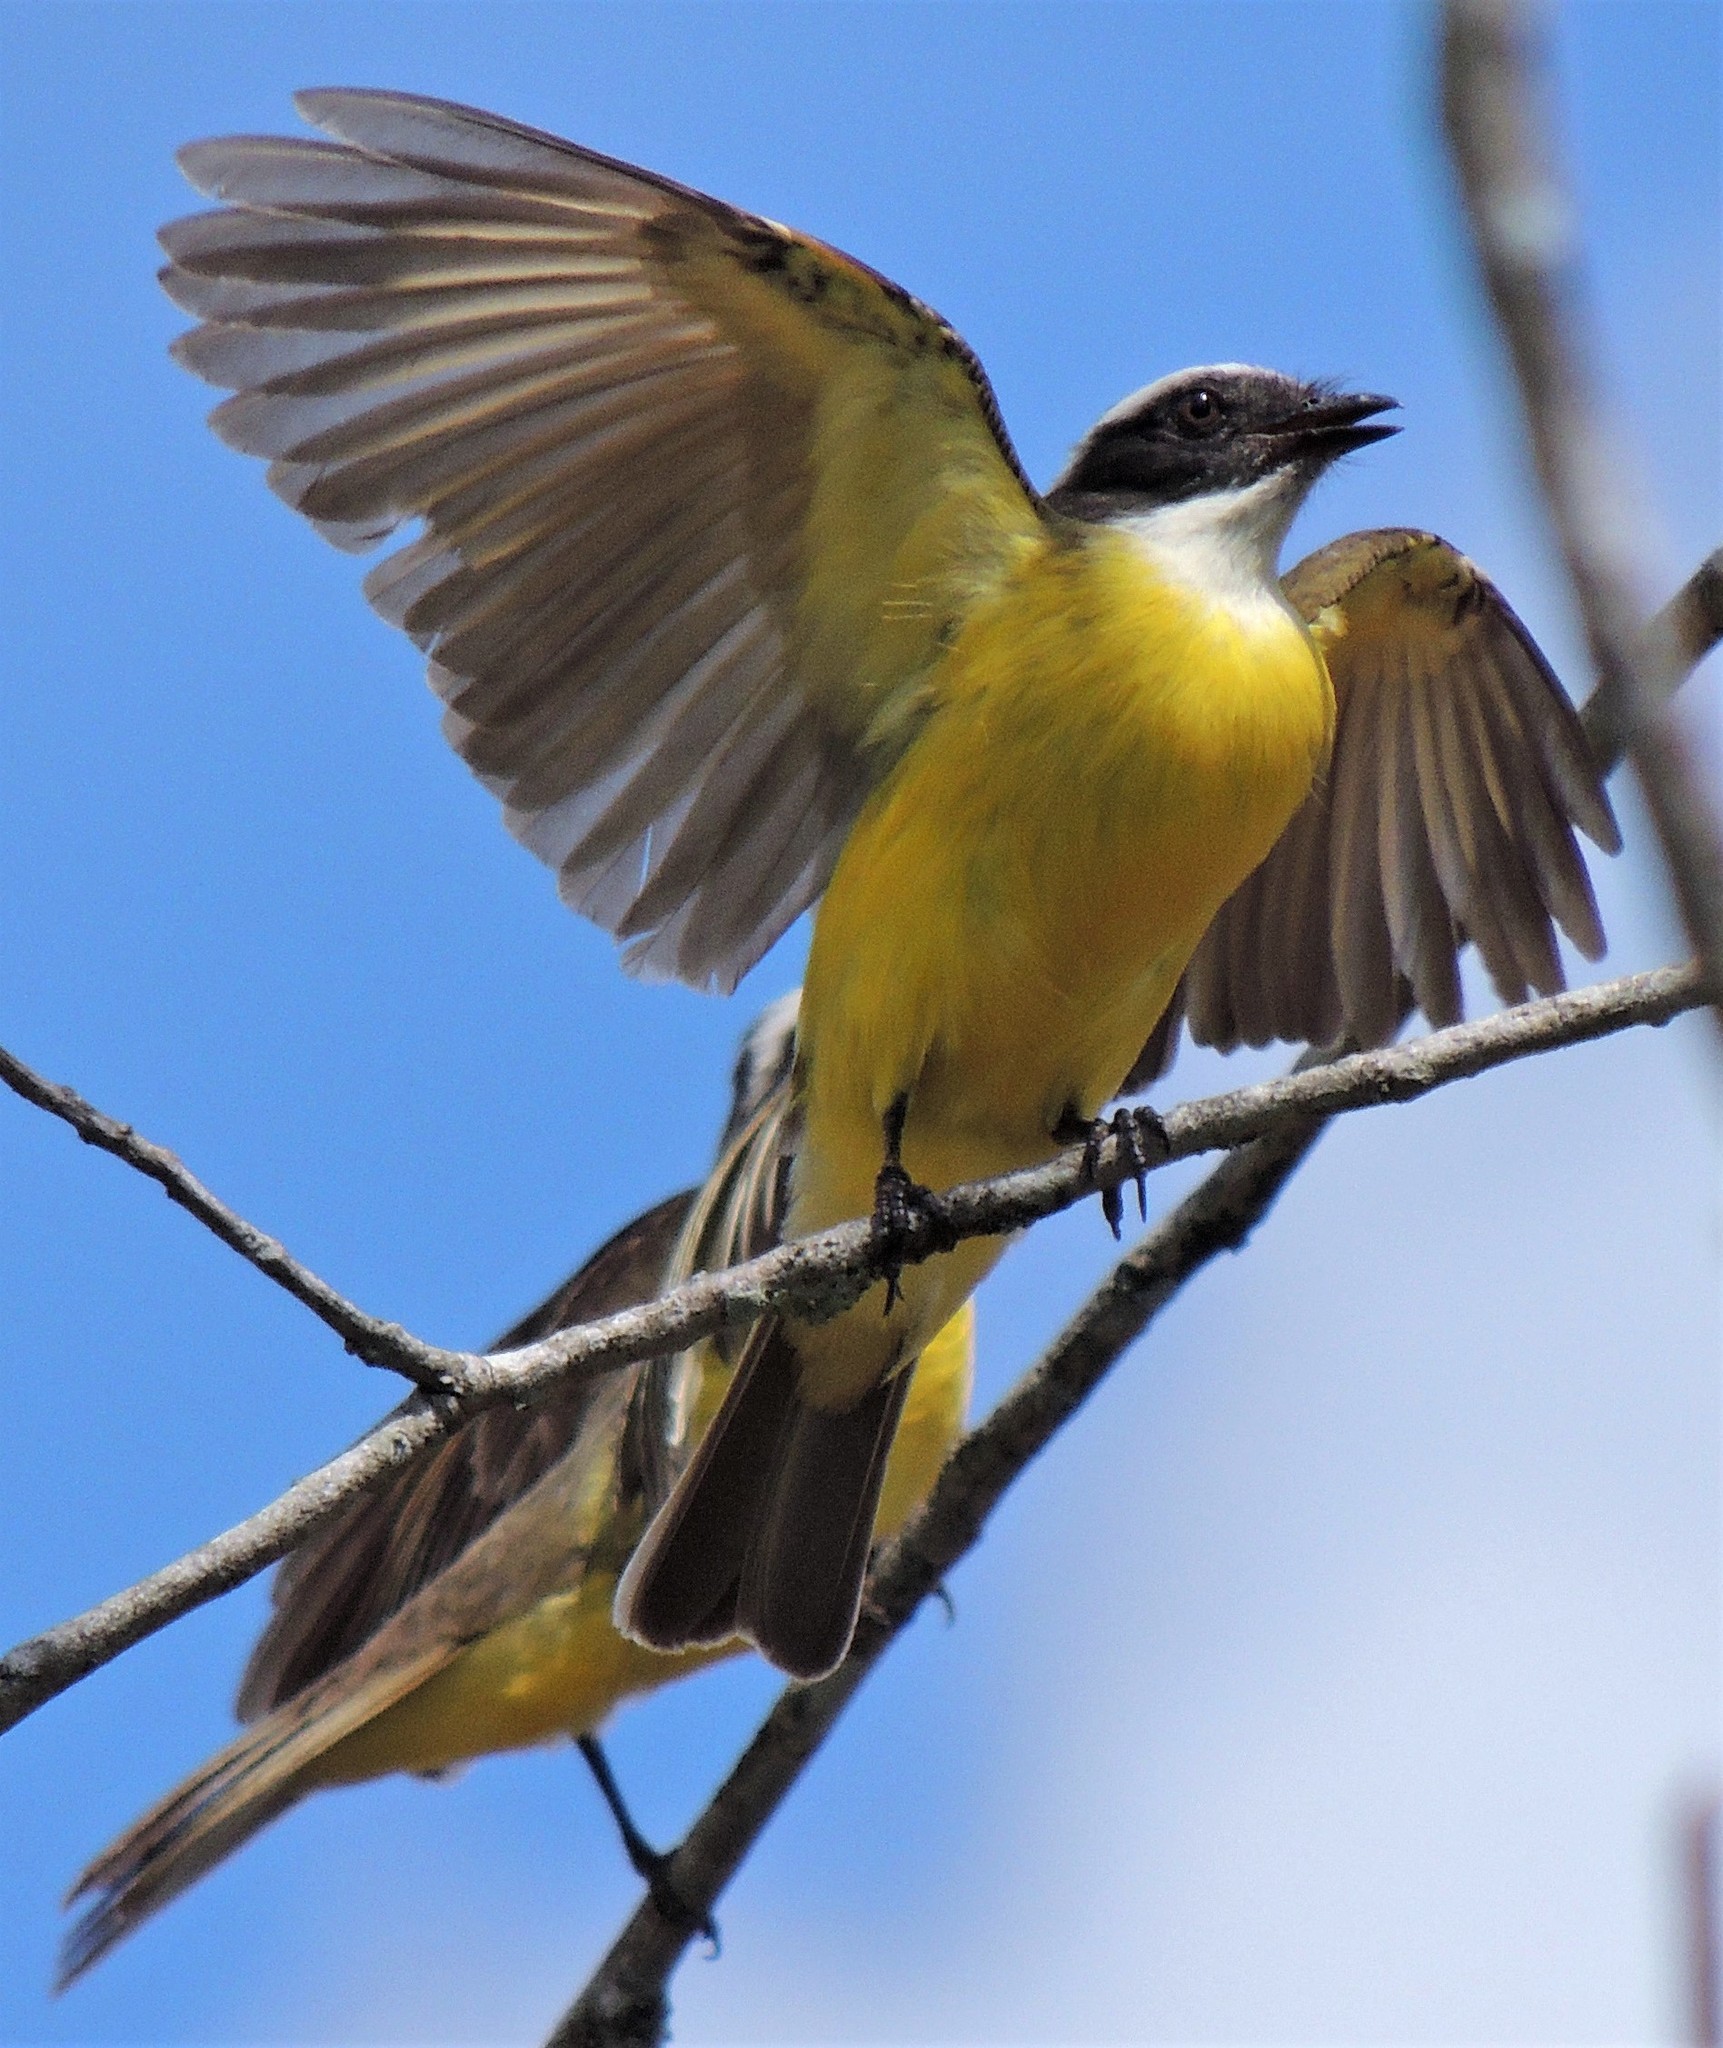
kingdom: Animalia
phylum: Chordata
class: Aves
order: Passeriformes
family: Tyrannidae
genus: Myiozetetes
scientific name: Myiozetetes similis
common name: Social flycatcher
